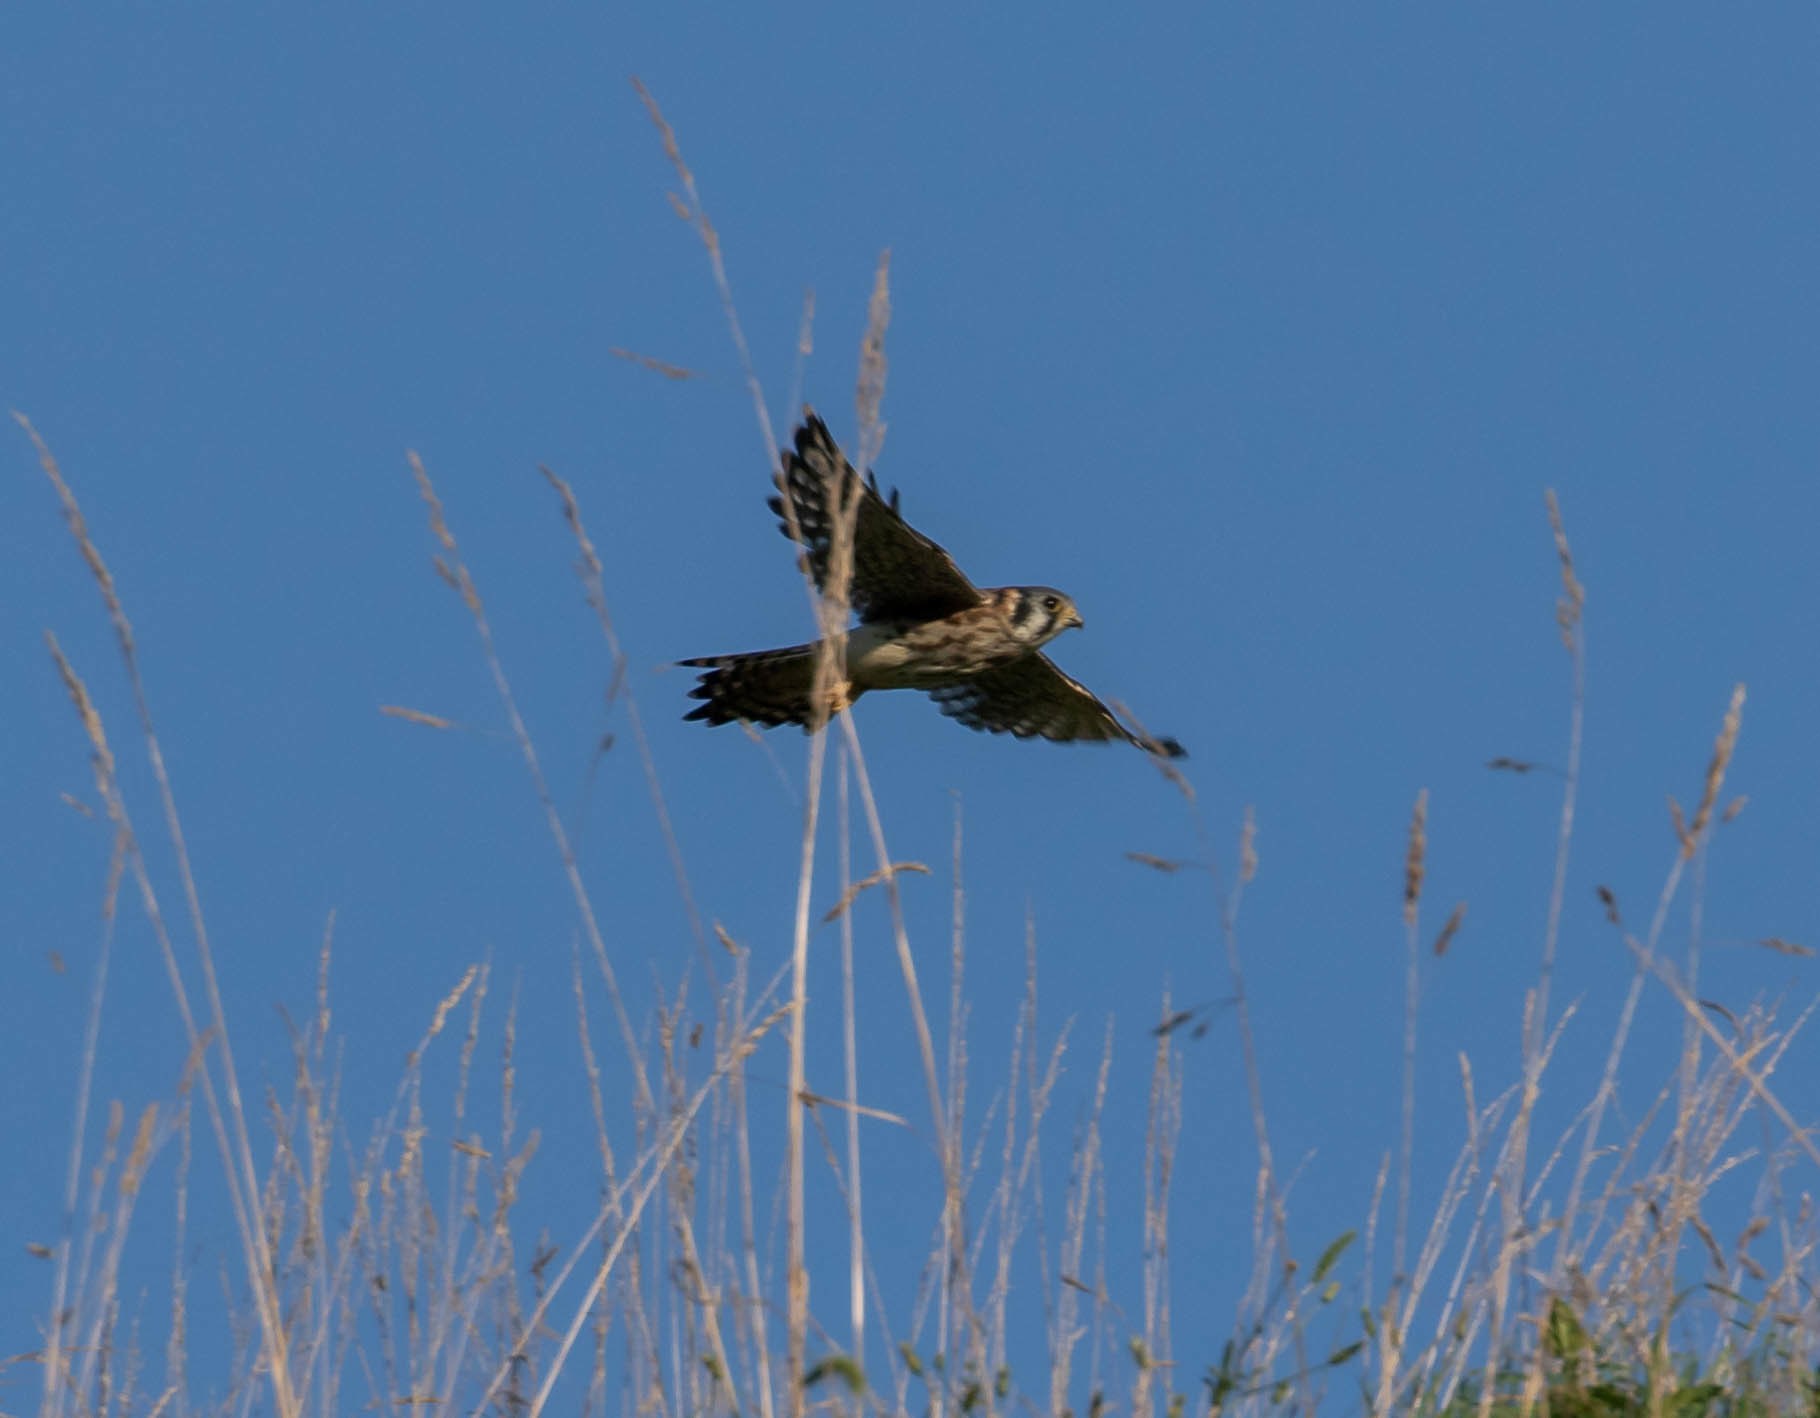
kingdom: Animalia
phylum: Chordata
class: Aves
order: Falconiformes
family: Falconidae
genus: Falco
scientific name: Falco sparverius
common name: American kestrel
